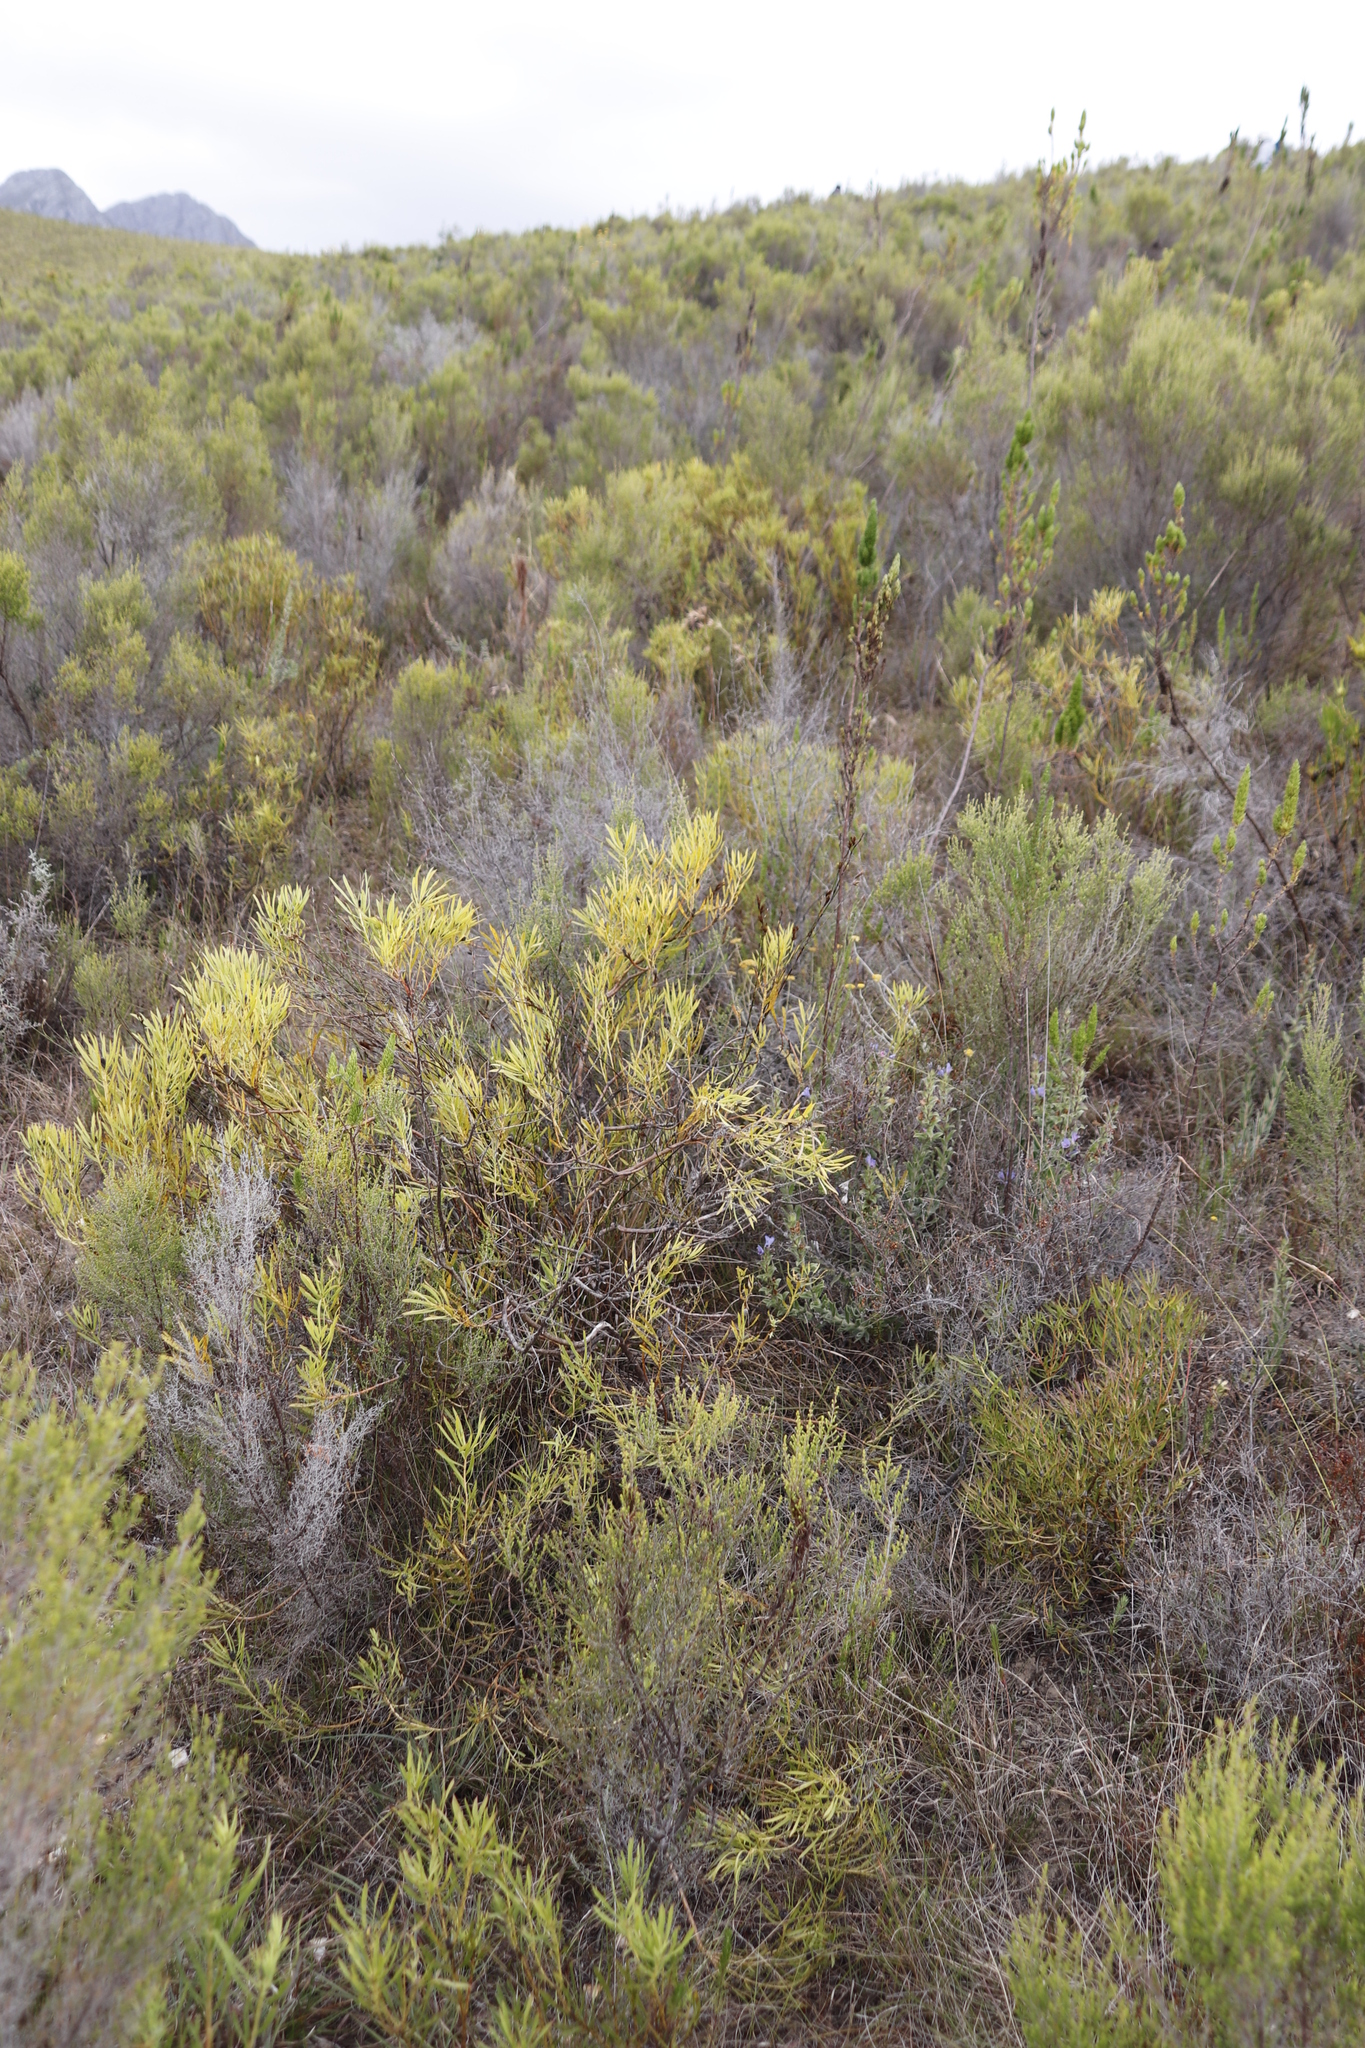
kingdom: Plantae
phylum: Tracheophyta
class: Magnoliopsida
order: Proteales
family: Proteaceae
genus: Leucadendron
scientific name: Leucadendron salignum
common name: Common sunshine conebush
